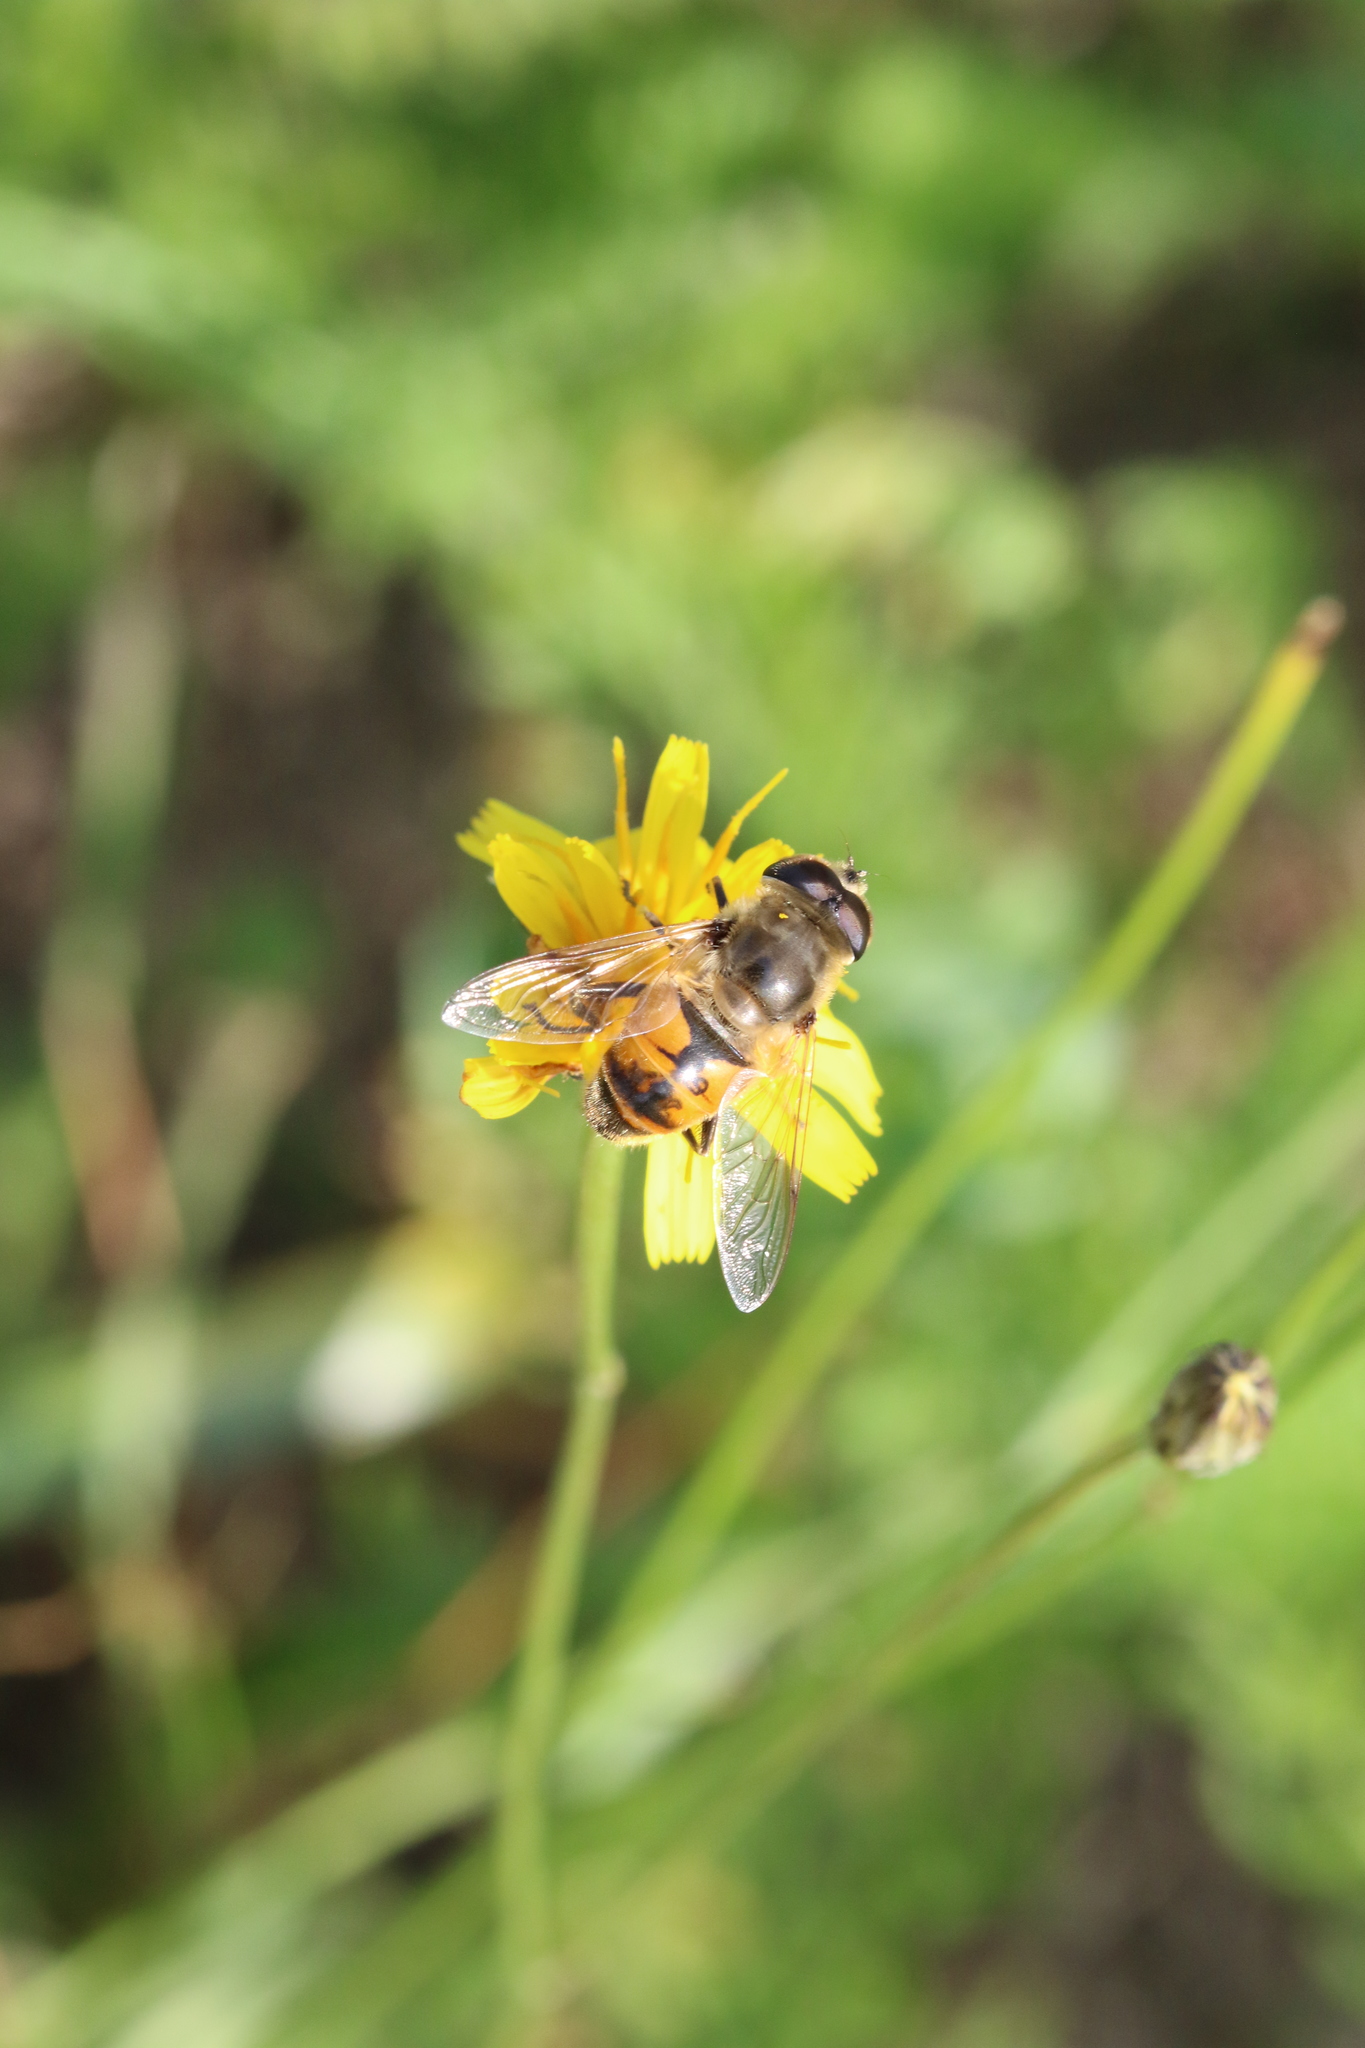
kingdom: Animalia
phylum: Arthropoda
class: Insecta
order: Diptera
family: Syrphidae
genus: Eristalis
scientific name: Eristalis tenax
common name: Drone fly
